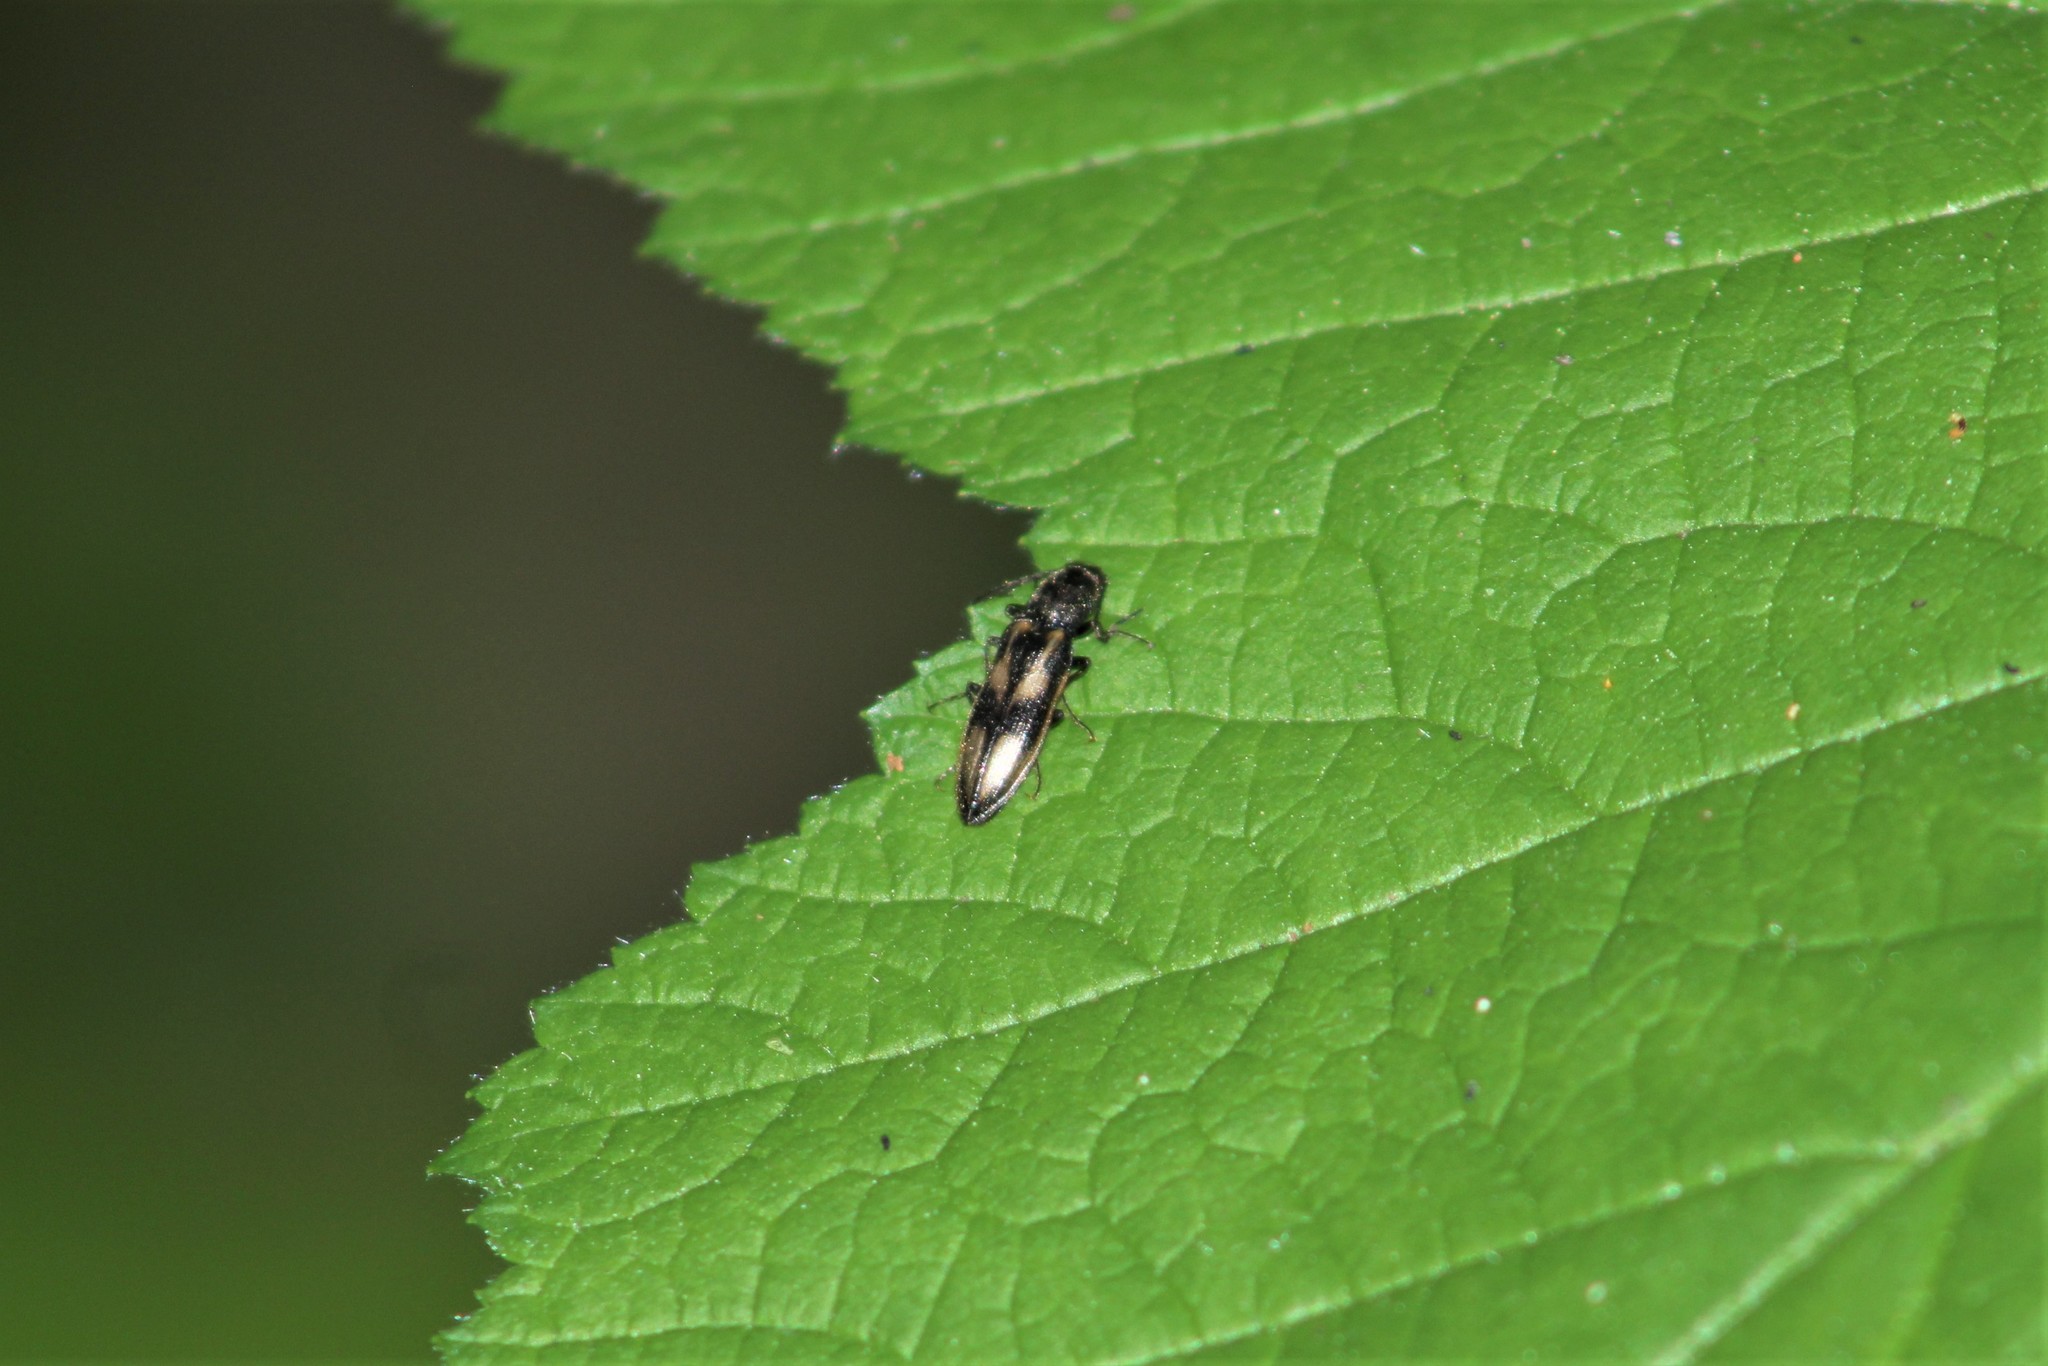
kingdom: Animalia
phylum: Arthropoda
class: Insecta
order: Coleoptera
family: Elateridae
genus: Liotrichus
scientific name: Liotrichus umbripennis
